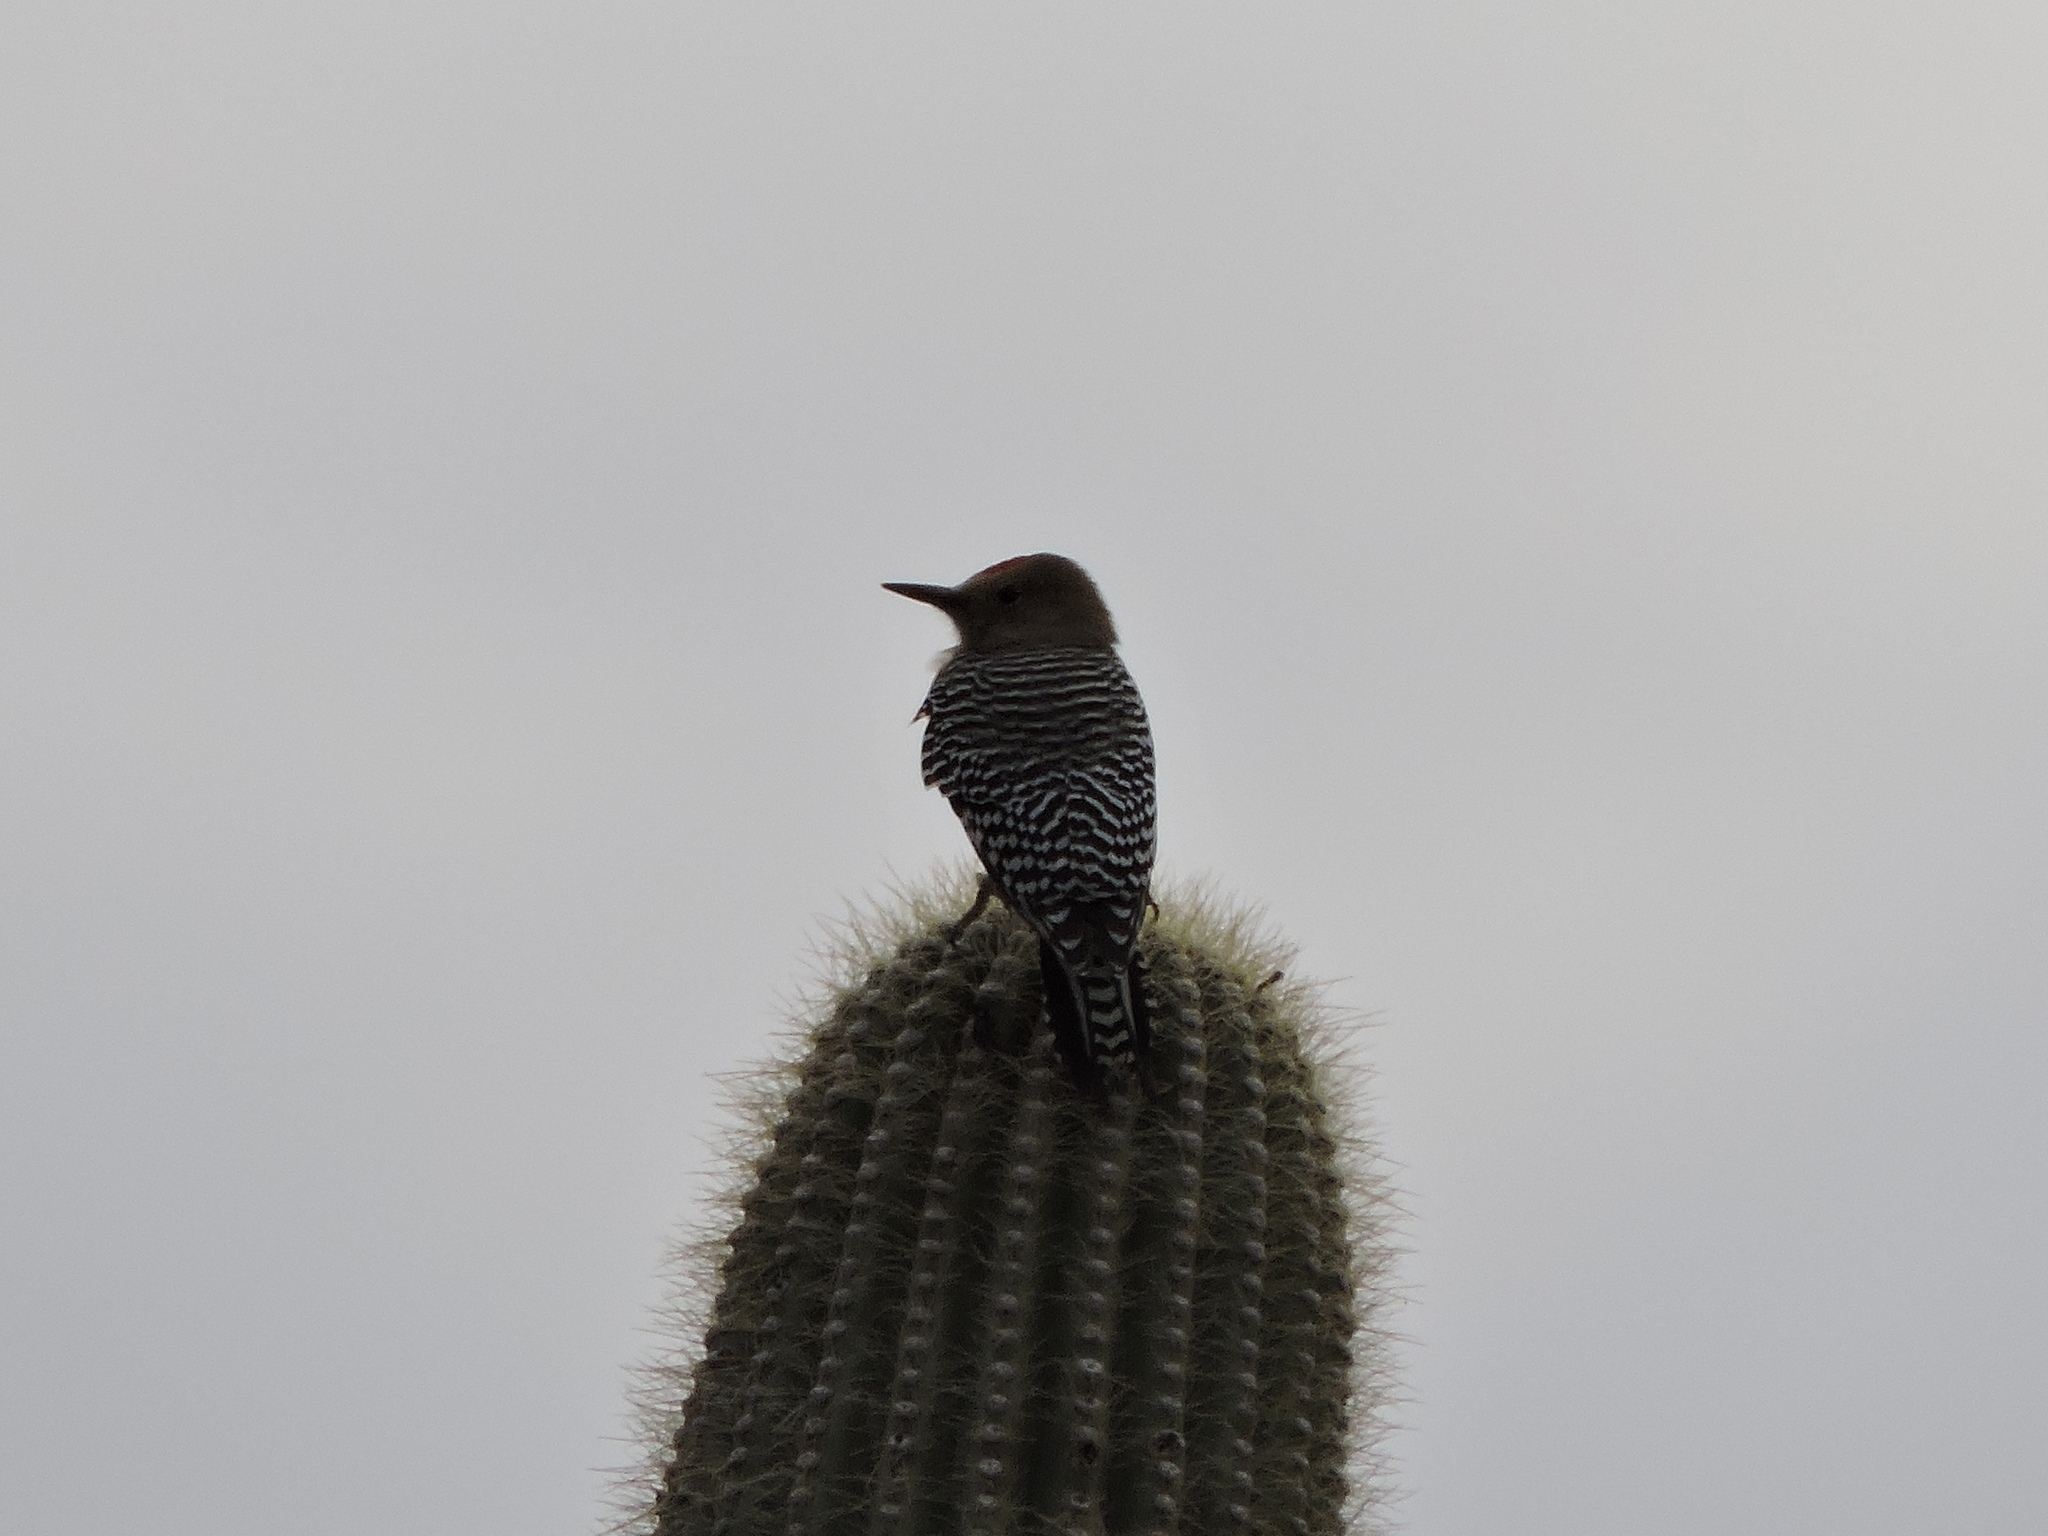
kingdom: Animalia
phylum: Chordata
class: Aves
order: Piciformes
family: Picidae
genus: Melanerpes
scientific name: Melanerpes uropygialis
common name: Gila woodpecker
